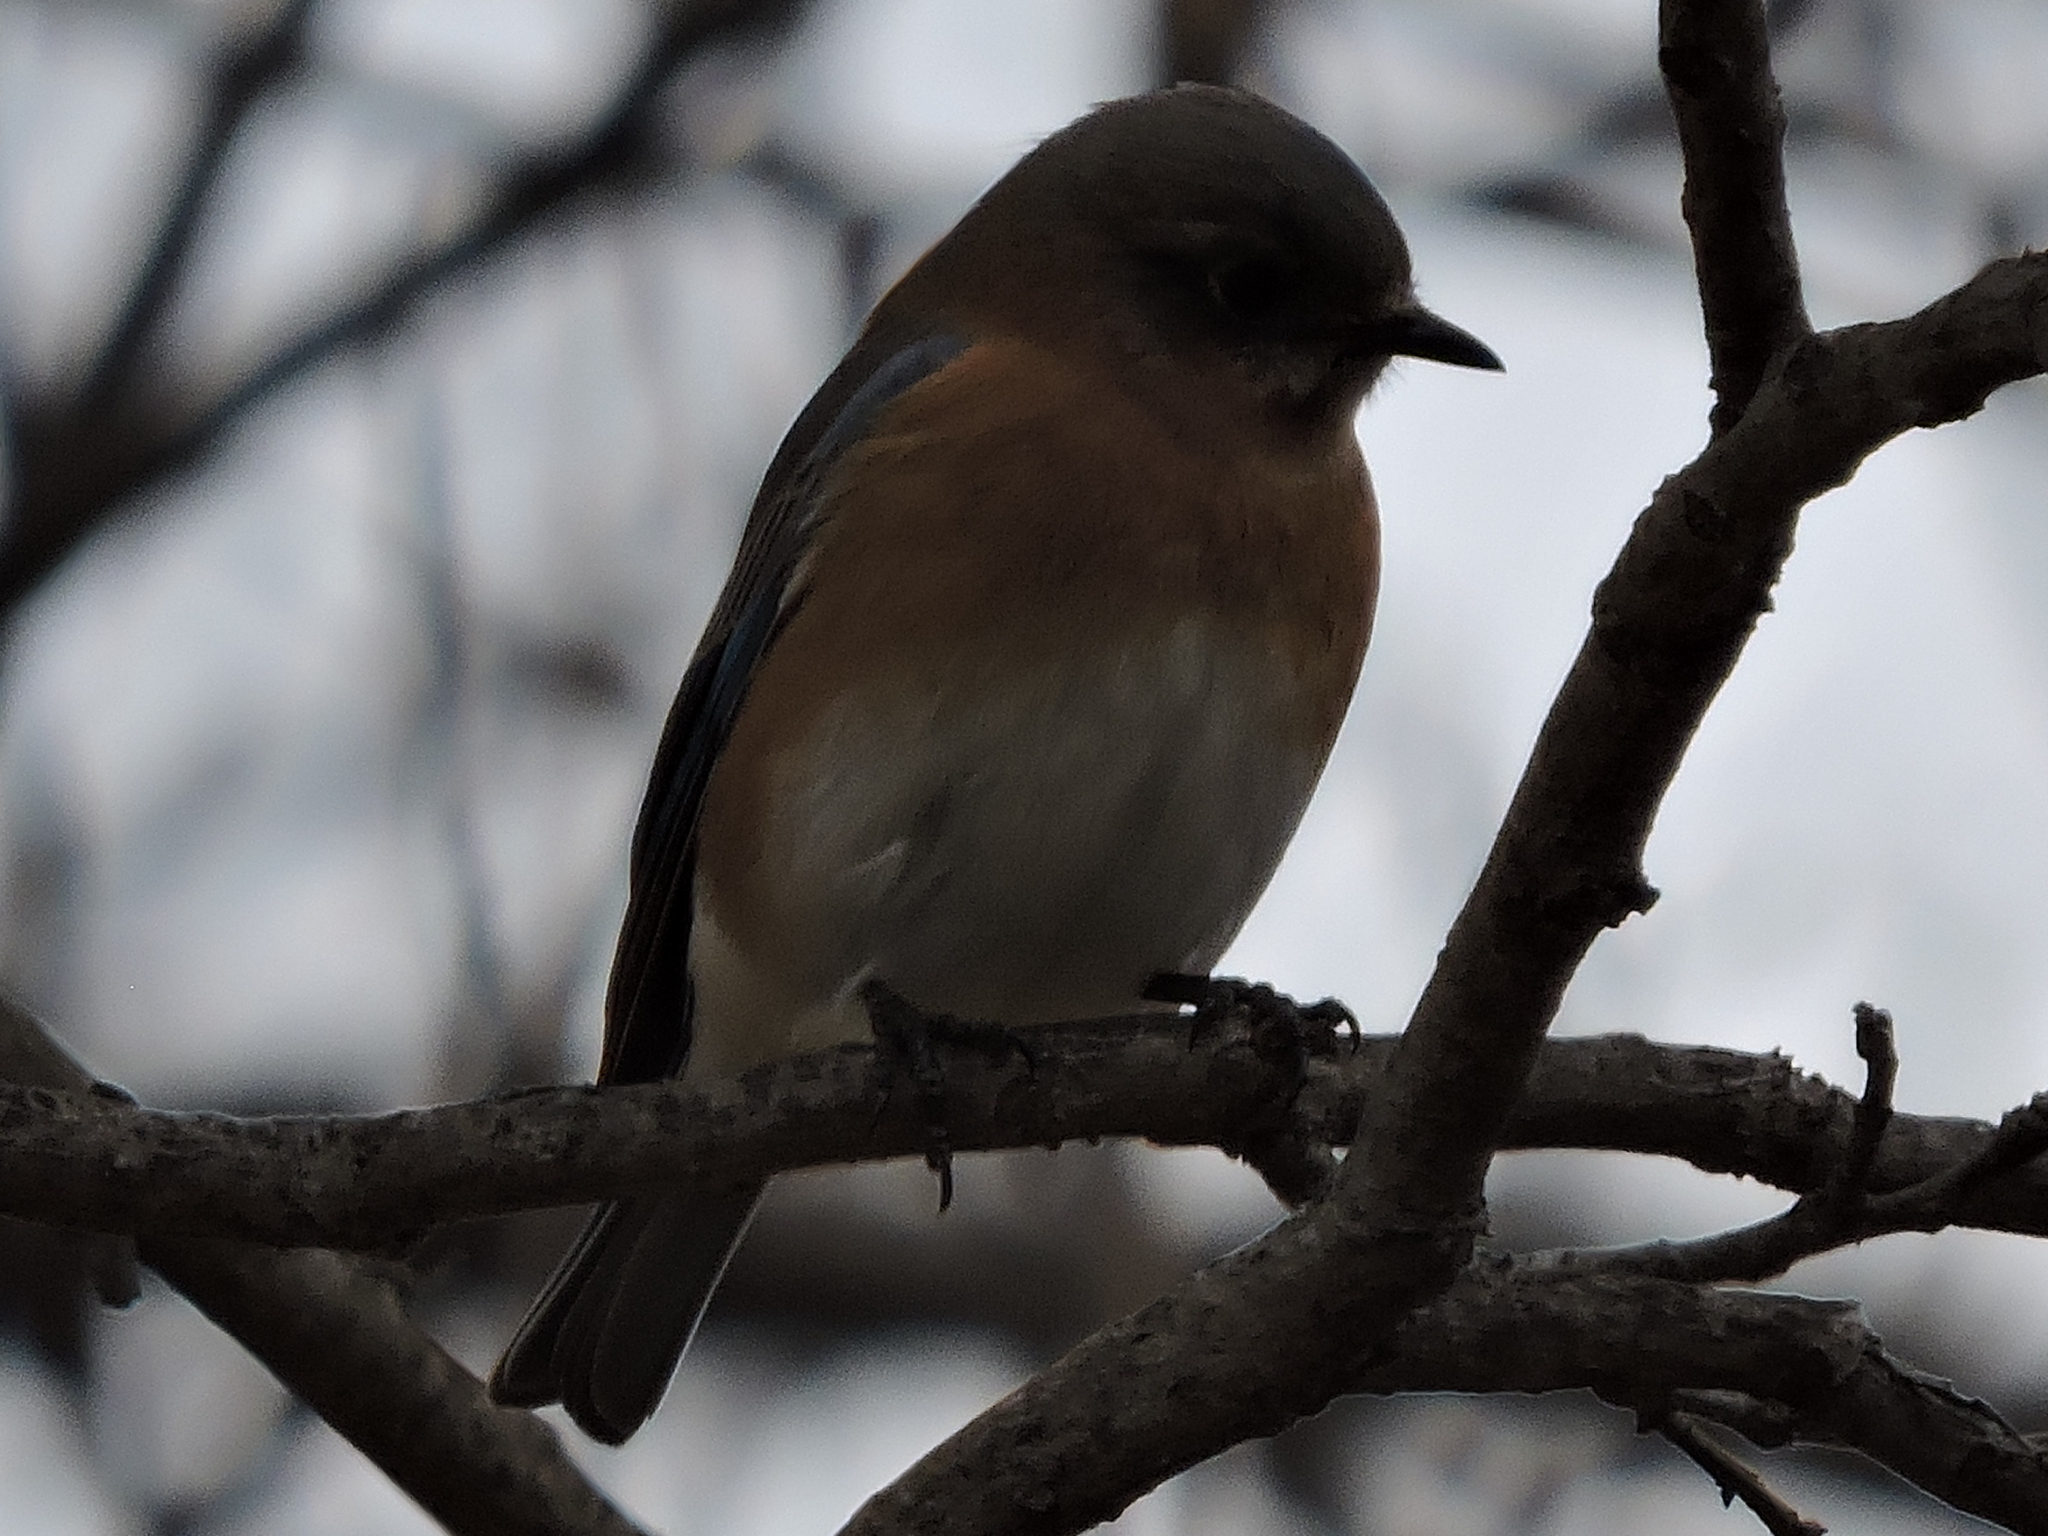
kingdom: Animalia
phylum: Chordata
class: Aves
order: Passeriformes
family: Turdidae
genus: Sialia
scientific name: Sialia sialis
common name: Eastern bluebird
